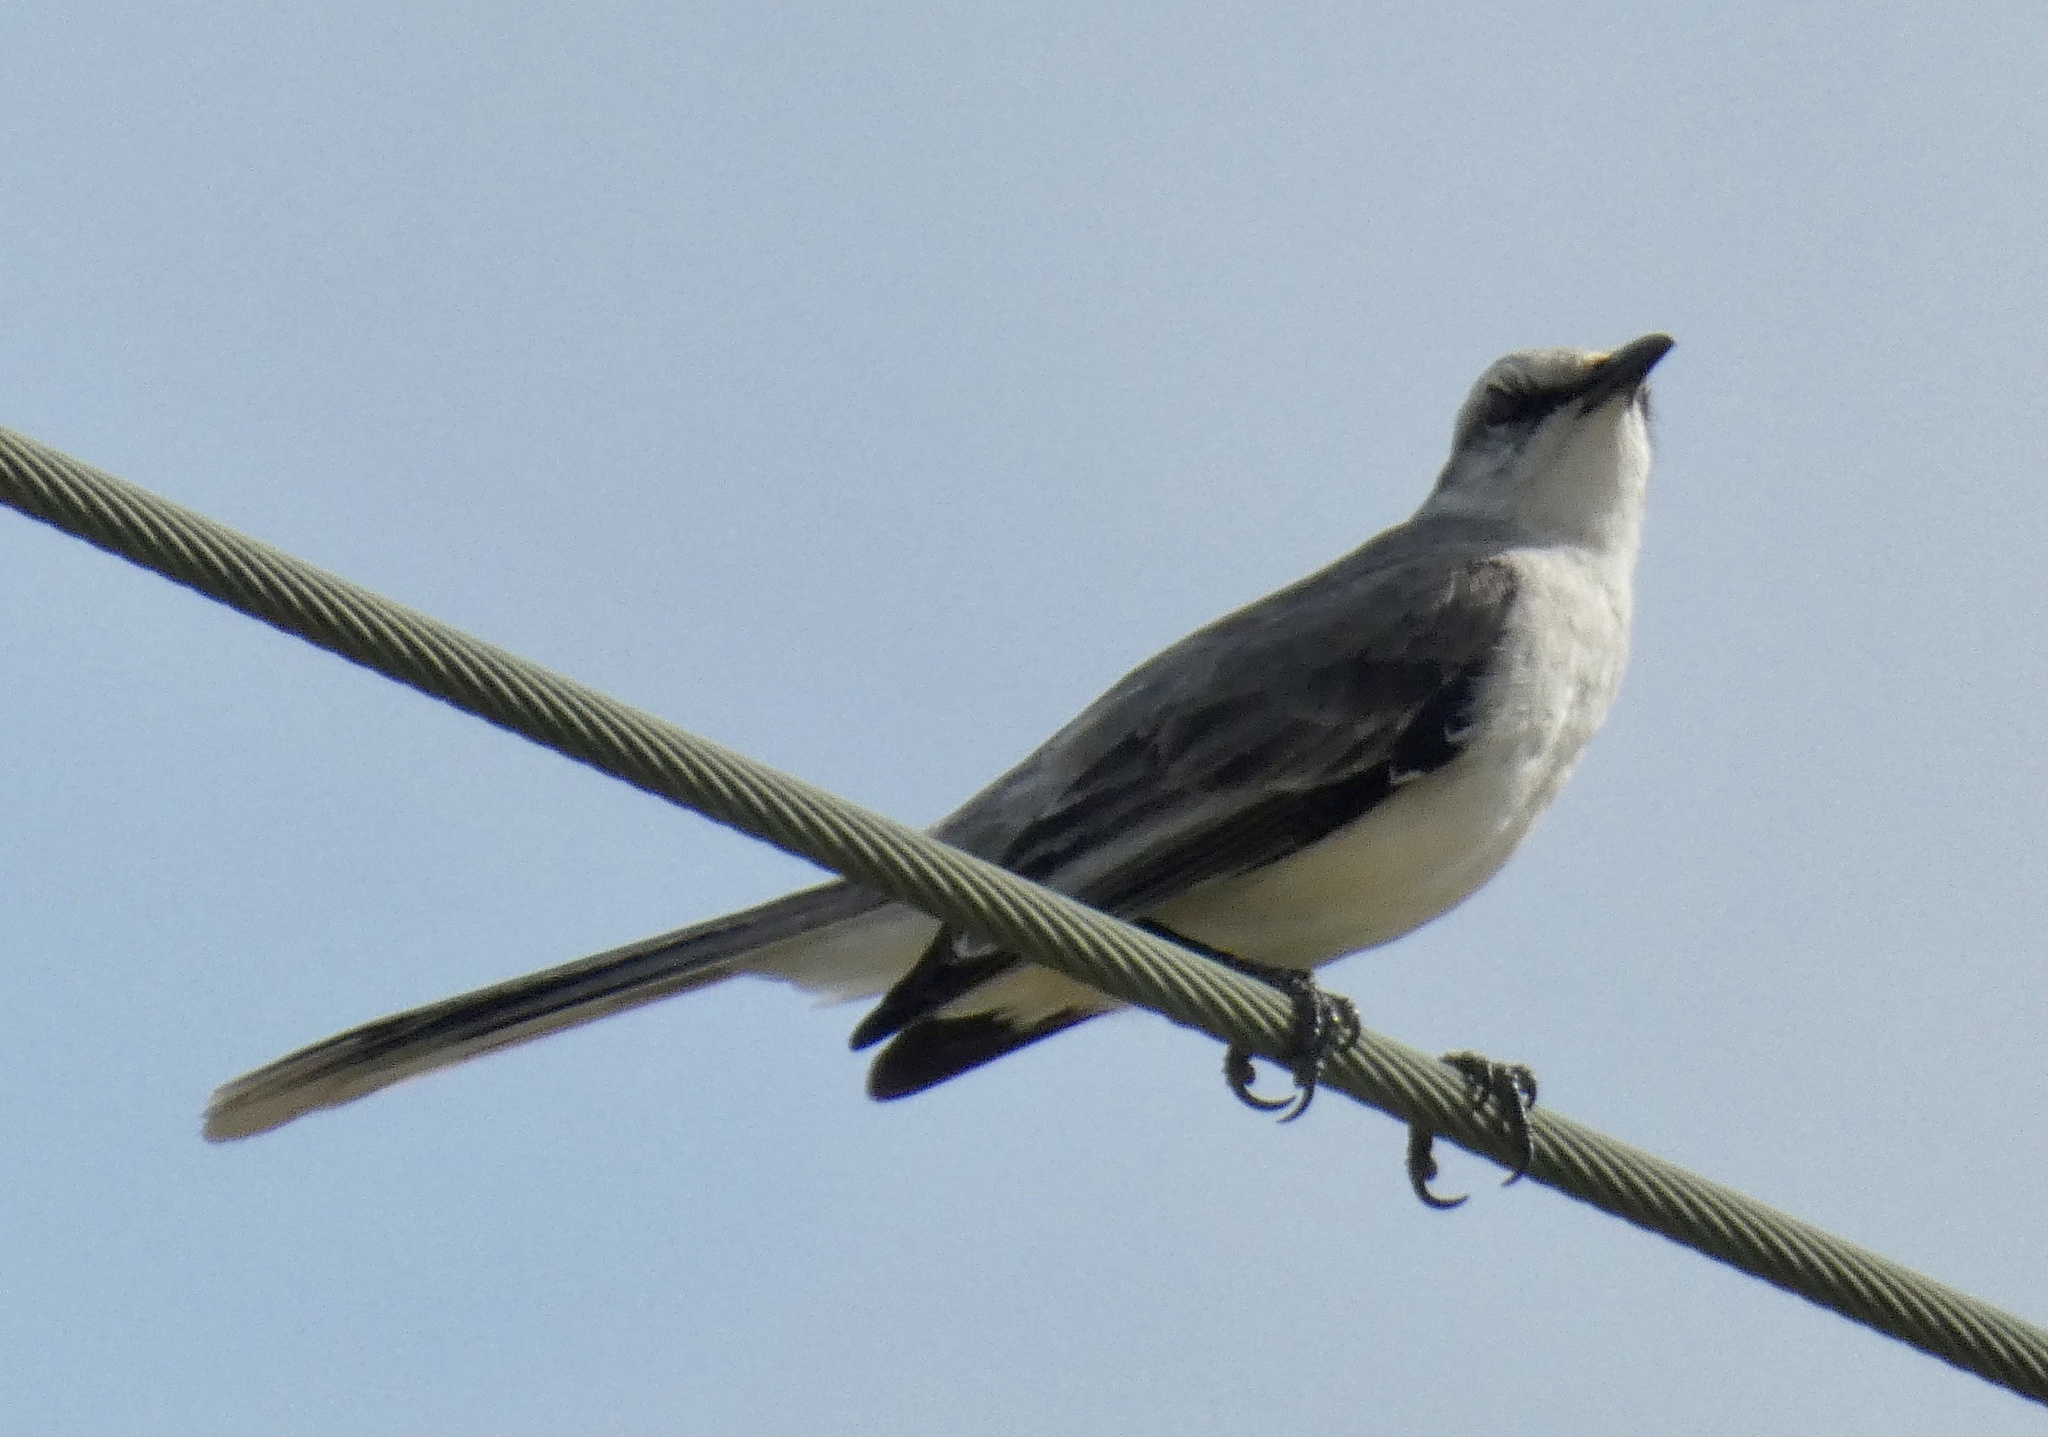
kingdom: Animalia
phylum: Chordata
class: Aves
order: Passeriformes
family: Mimidae
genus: Mimus
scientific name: Mimus gilvus
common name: Tropical mockingbird
